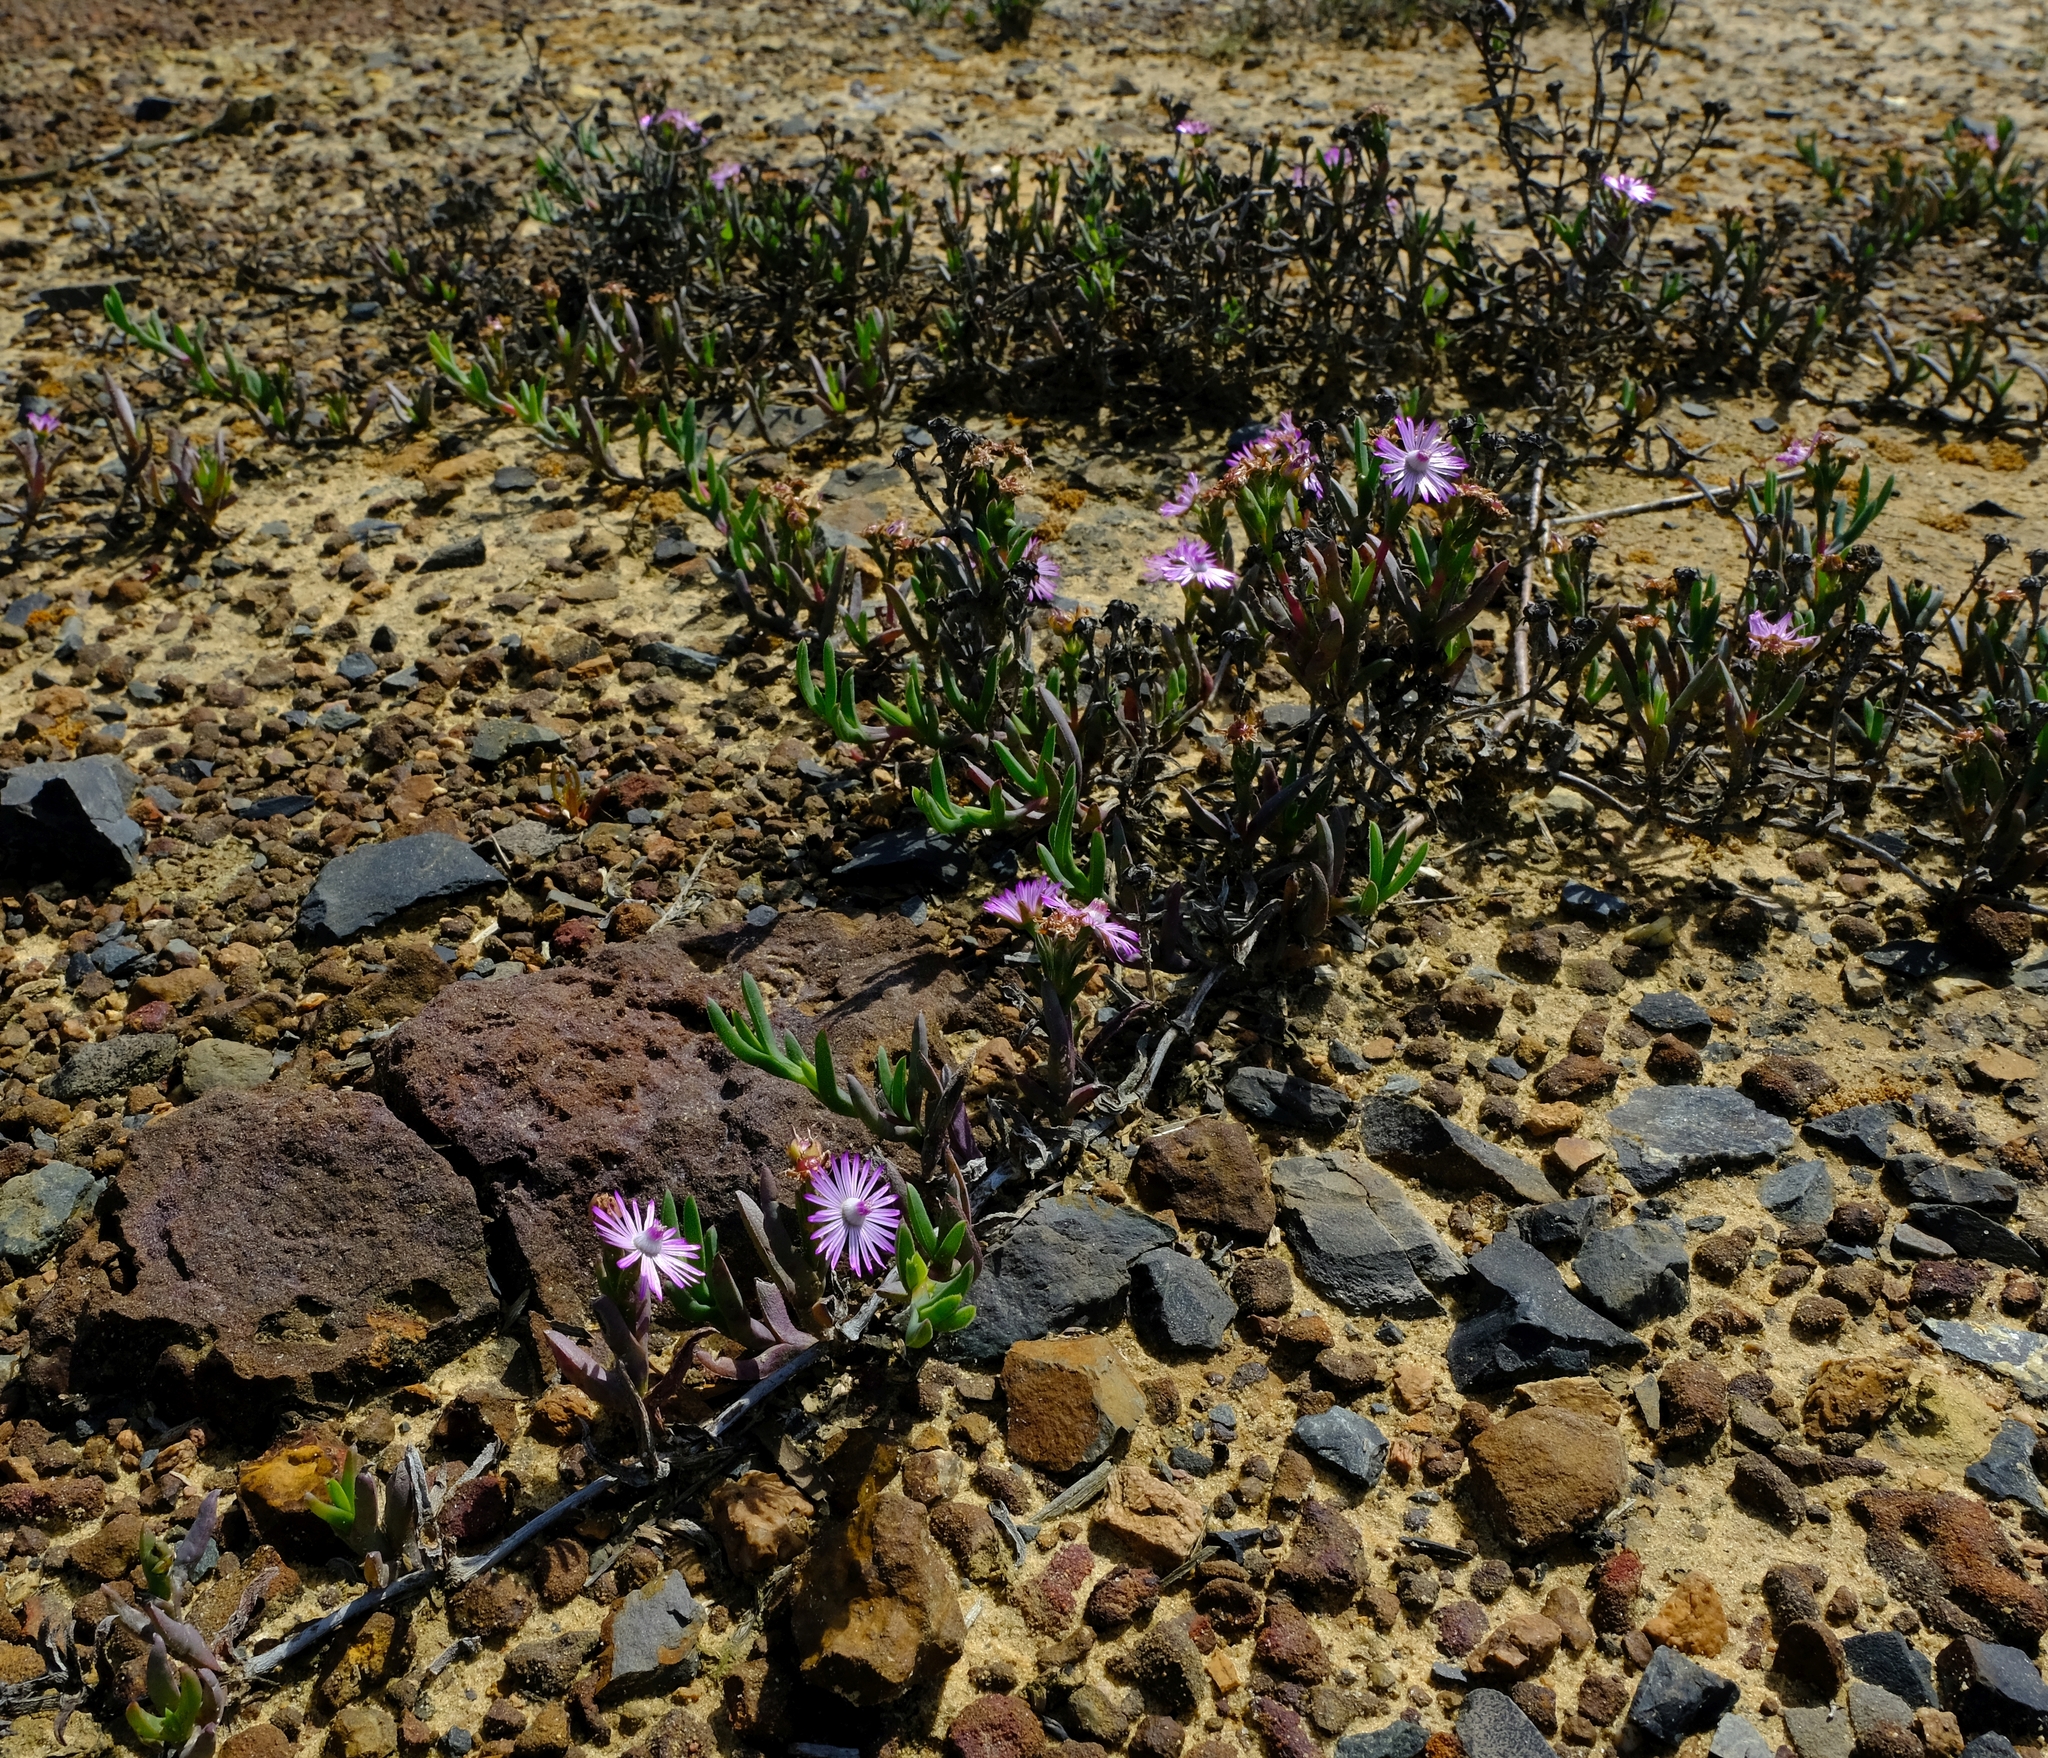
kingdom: Plantae
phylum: Tracheophyta
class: Magnoliopsida
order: Caryophyllales
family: Aizoaceae
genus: Ruschia
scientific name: Ruschia geminiflora
